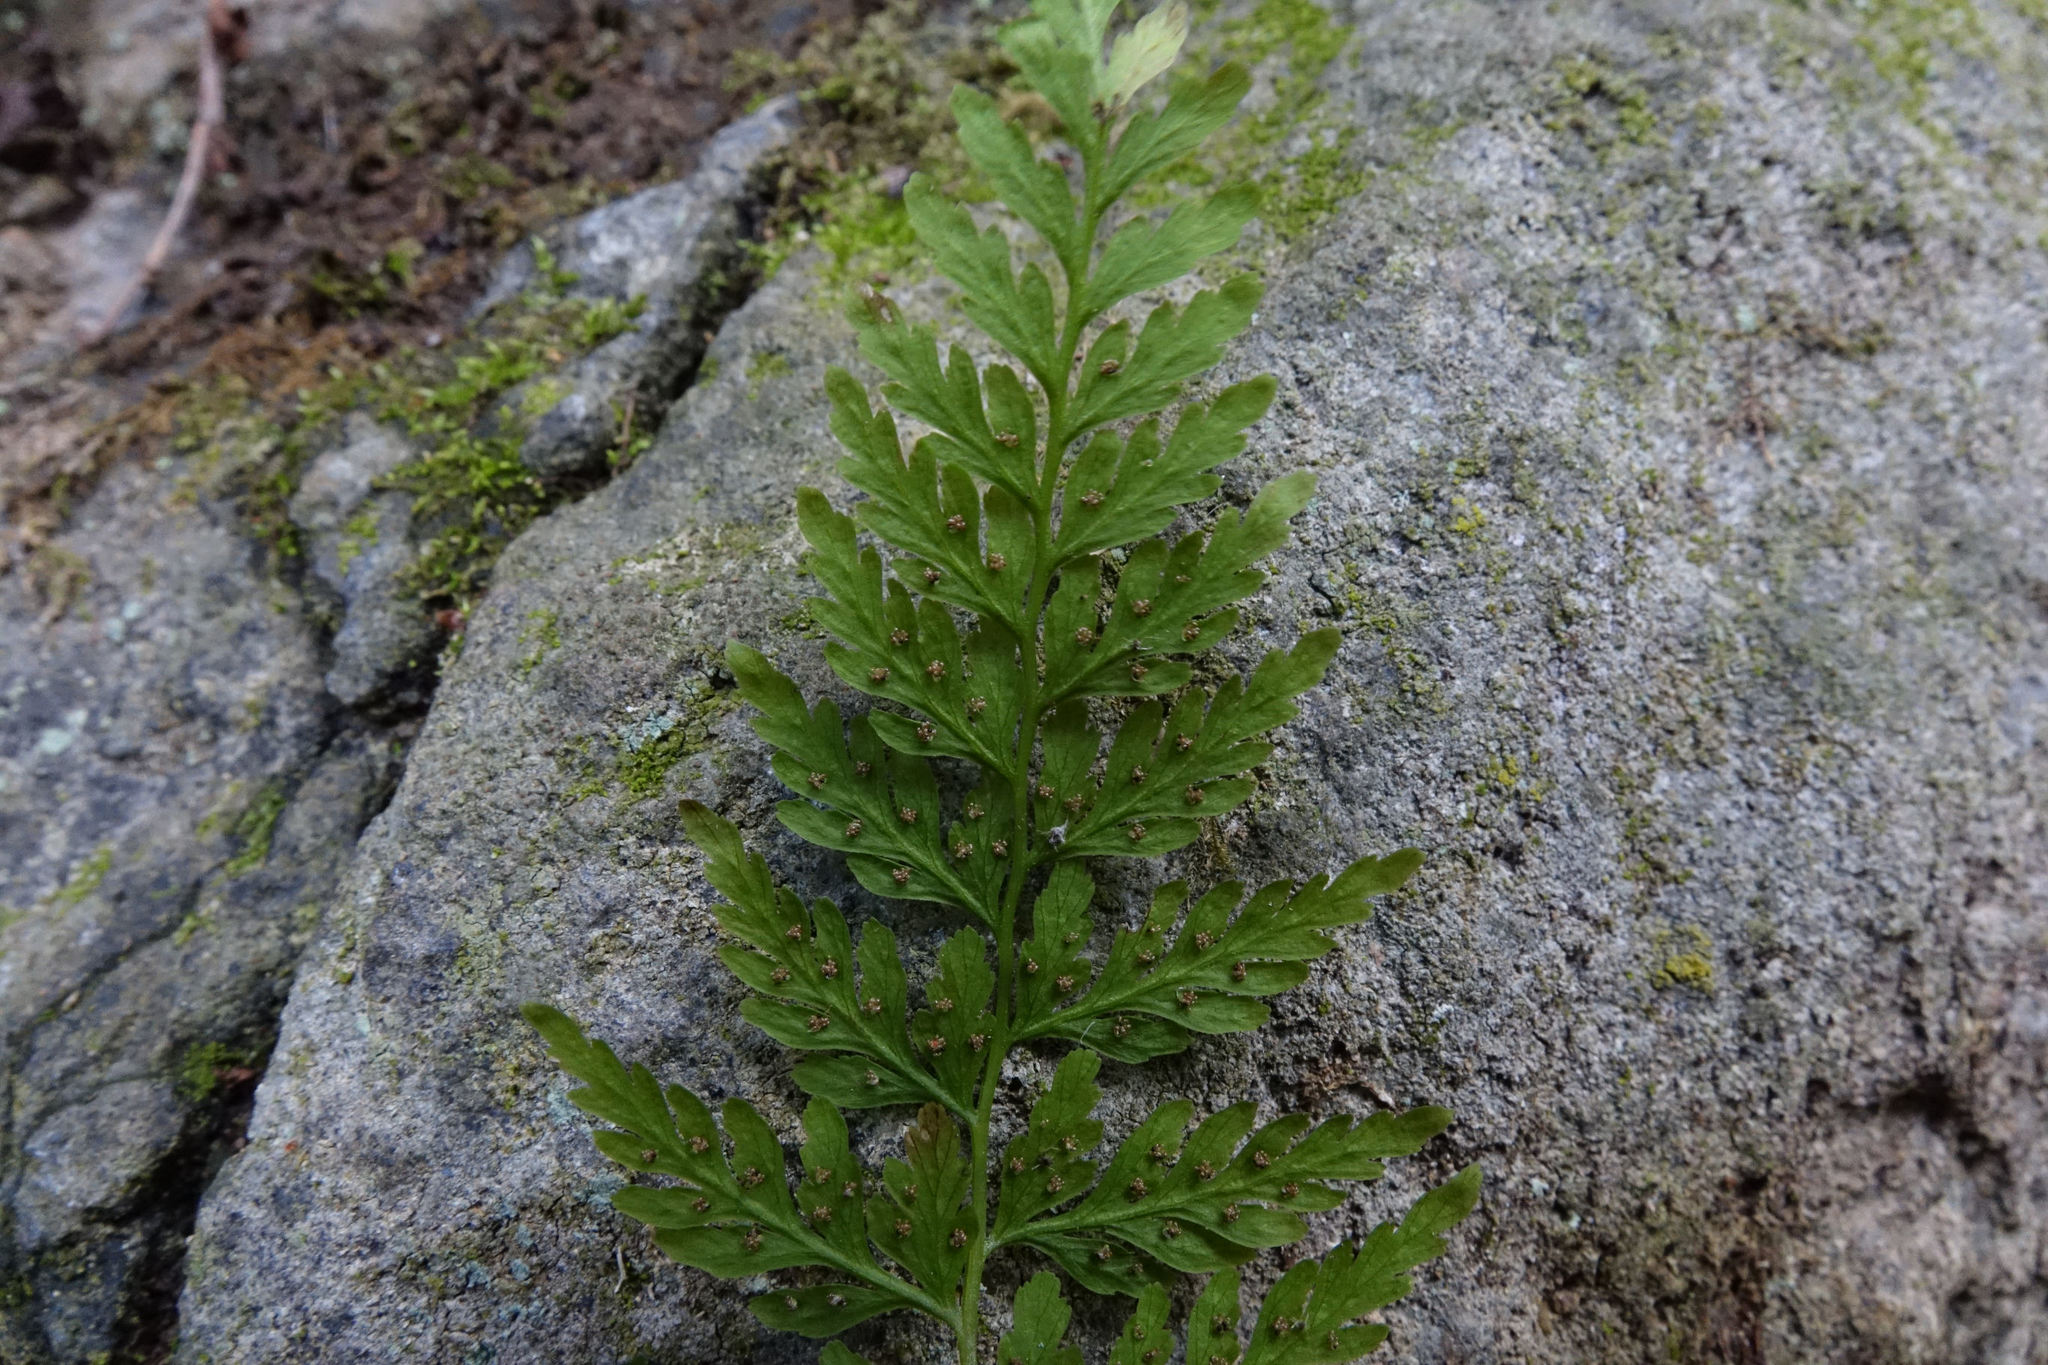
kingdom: Plantae
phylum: Tracheophyta
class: Polypodiopsida
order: Polypodiales
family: Cystopteridaceae
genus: Cystopteris
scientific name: Cystopteris fragilis
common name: Brittle bladder fern
